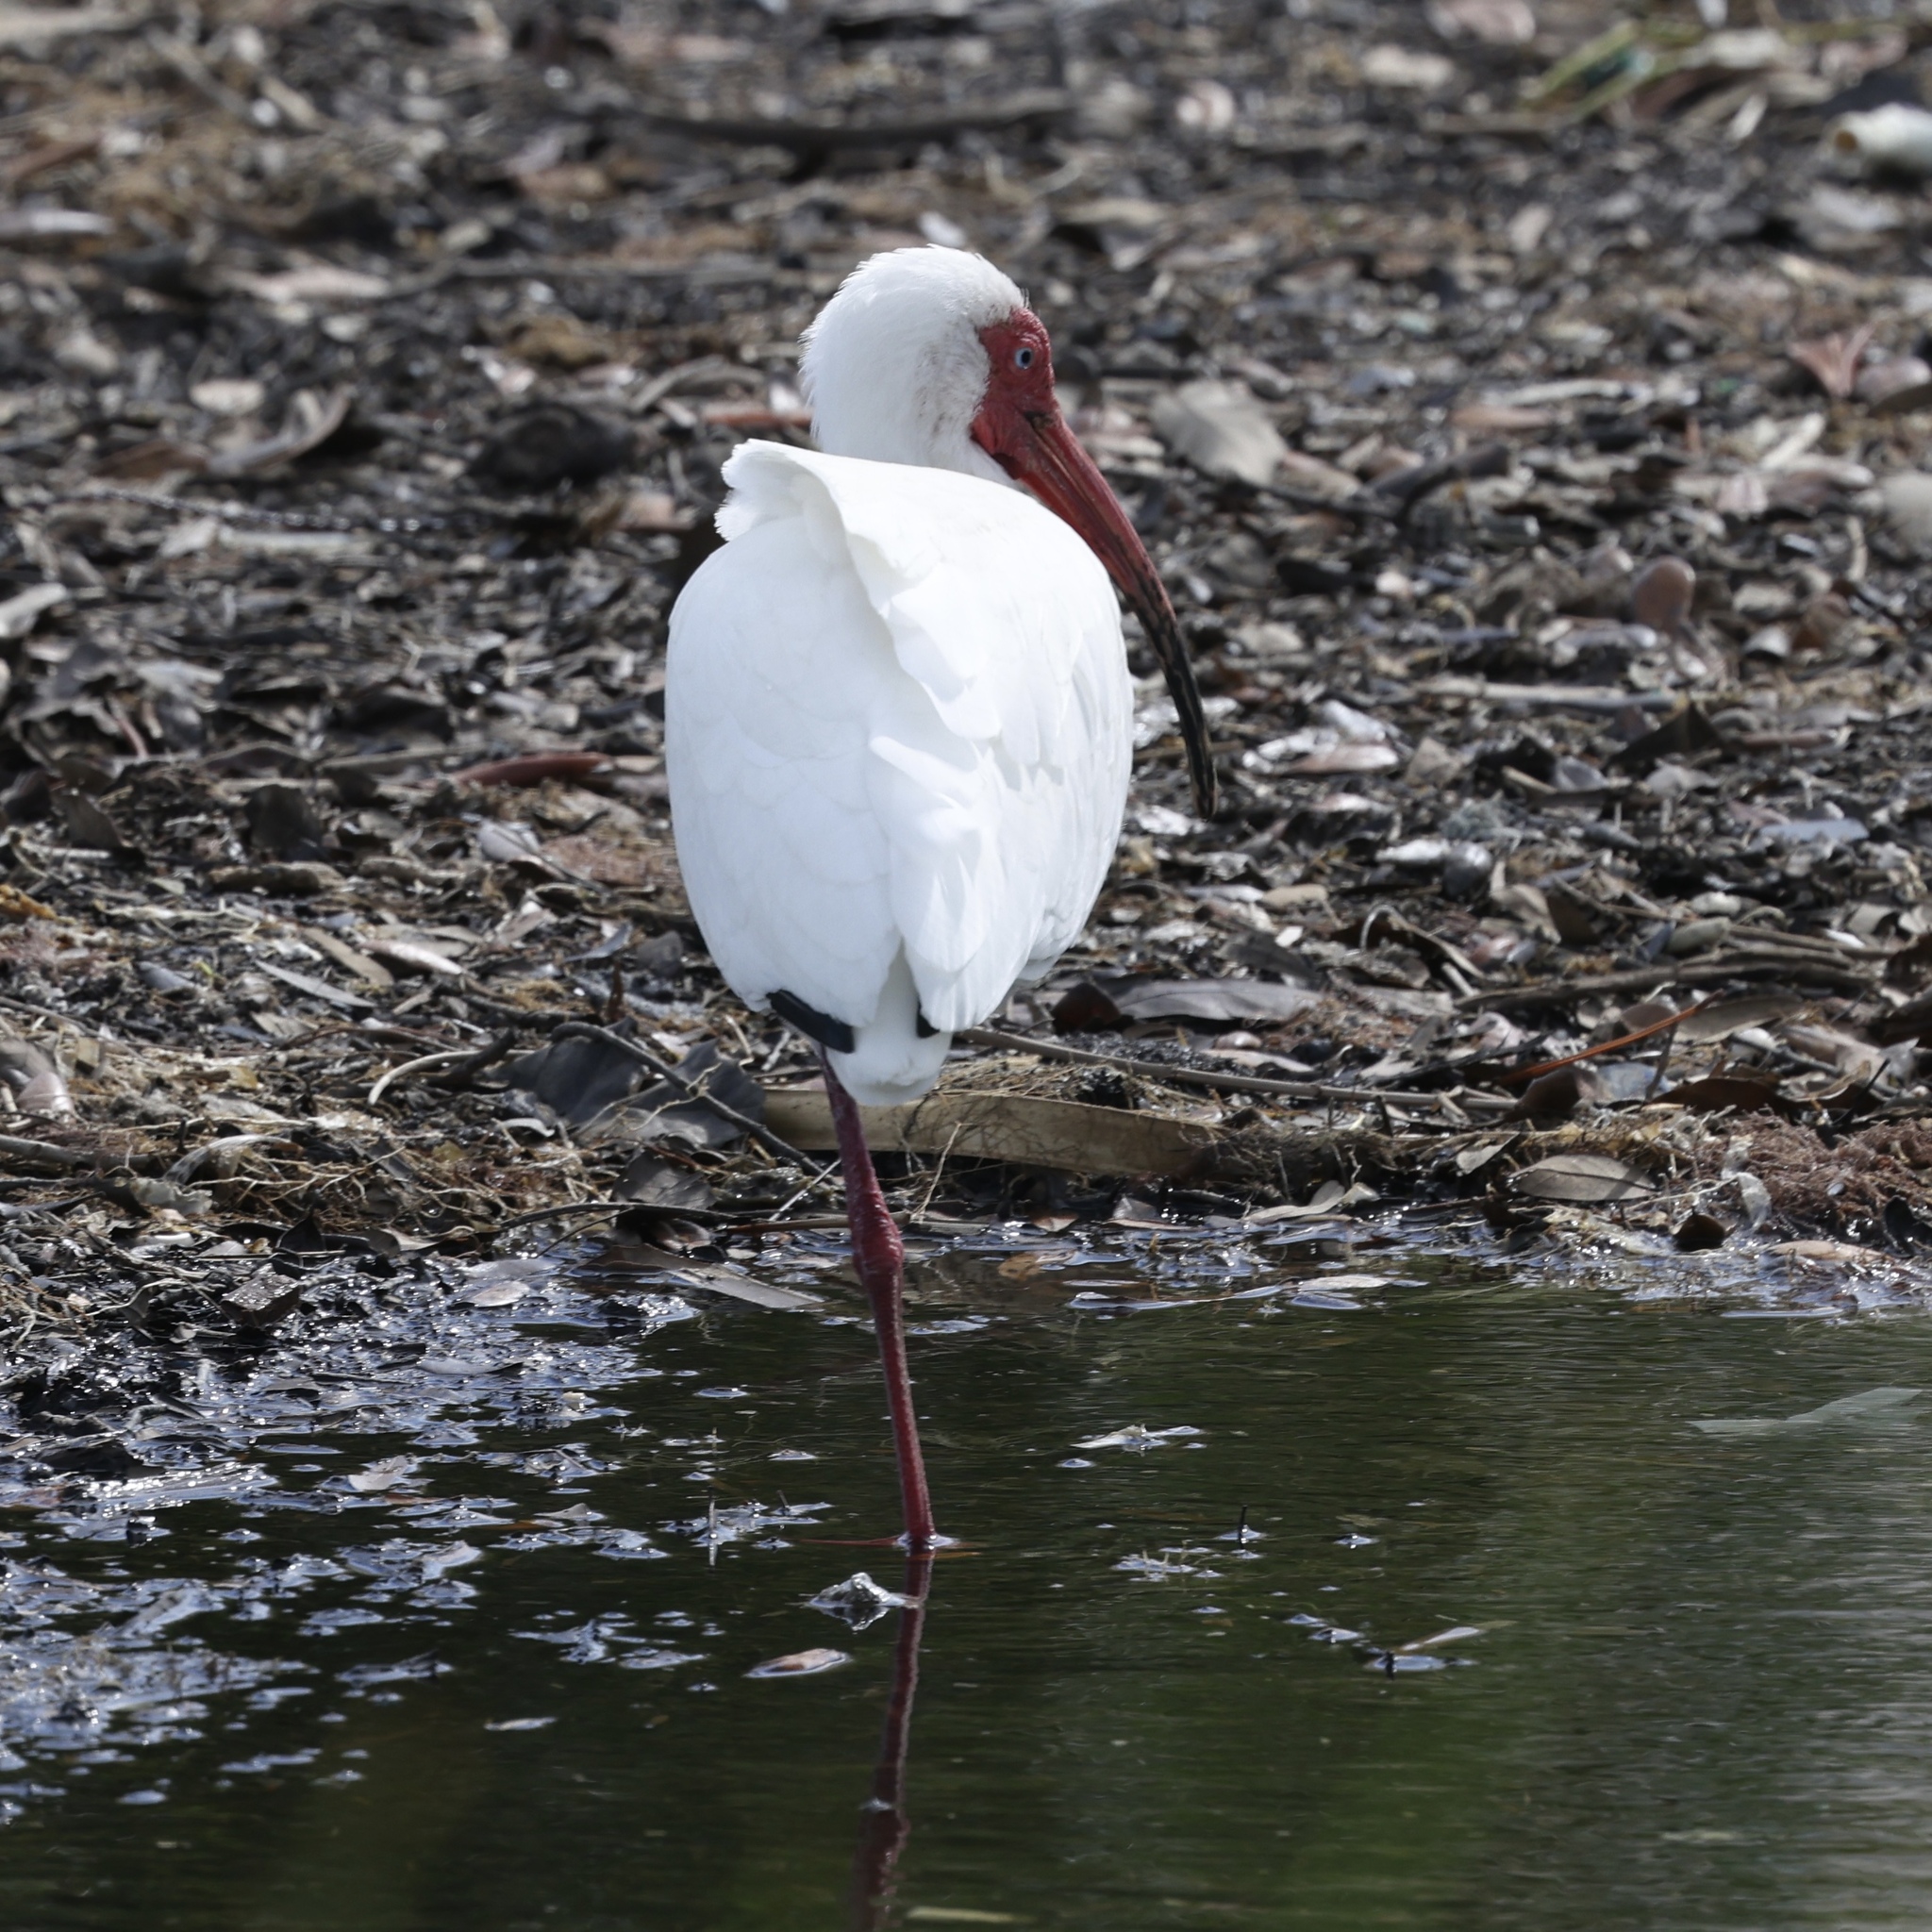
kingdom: Animalia
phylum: Chordata
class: Aves
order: Pelecaniformes
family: Threskiornithidae
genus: Eudocimus
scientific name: Eudocimus albus
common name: White ibis
